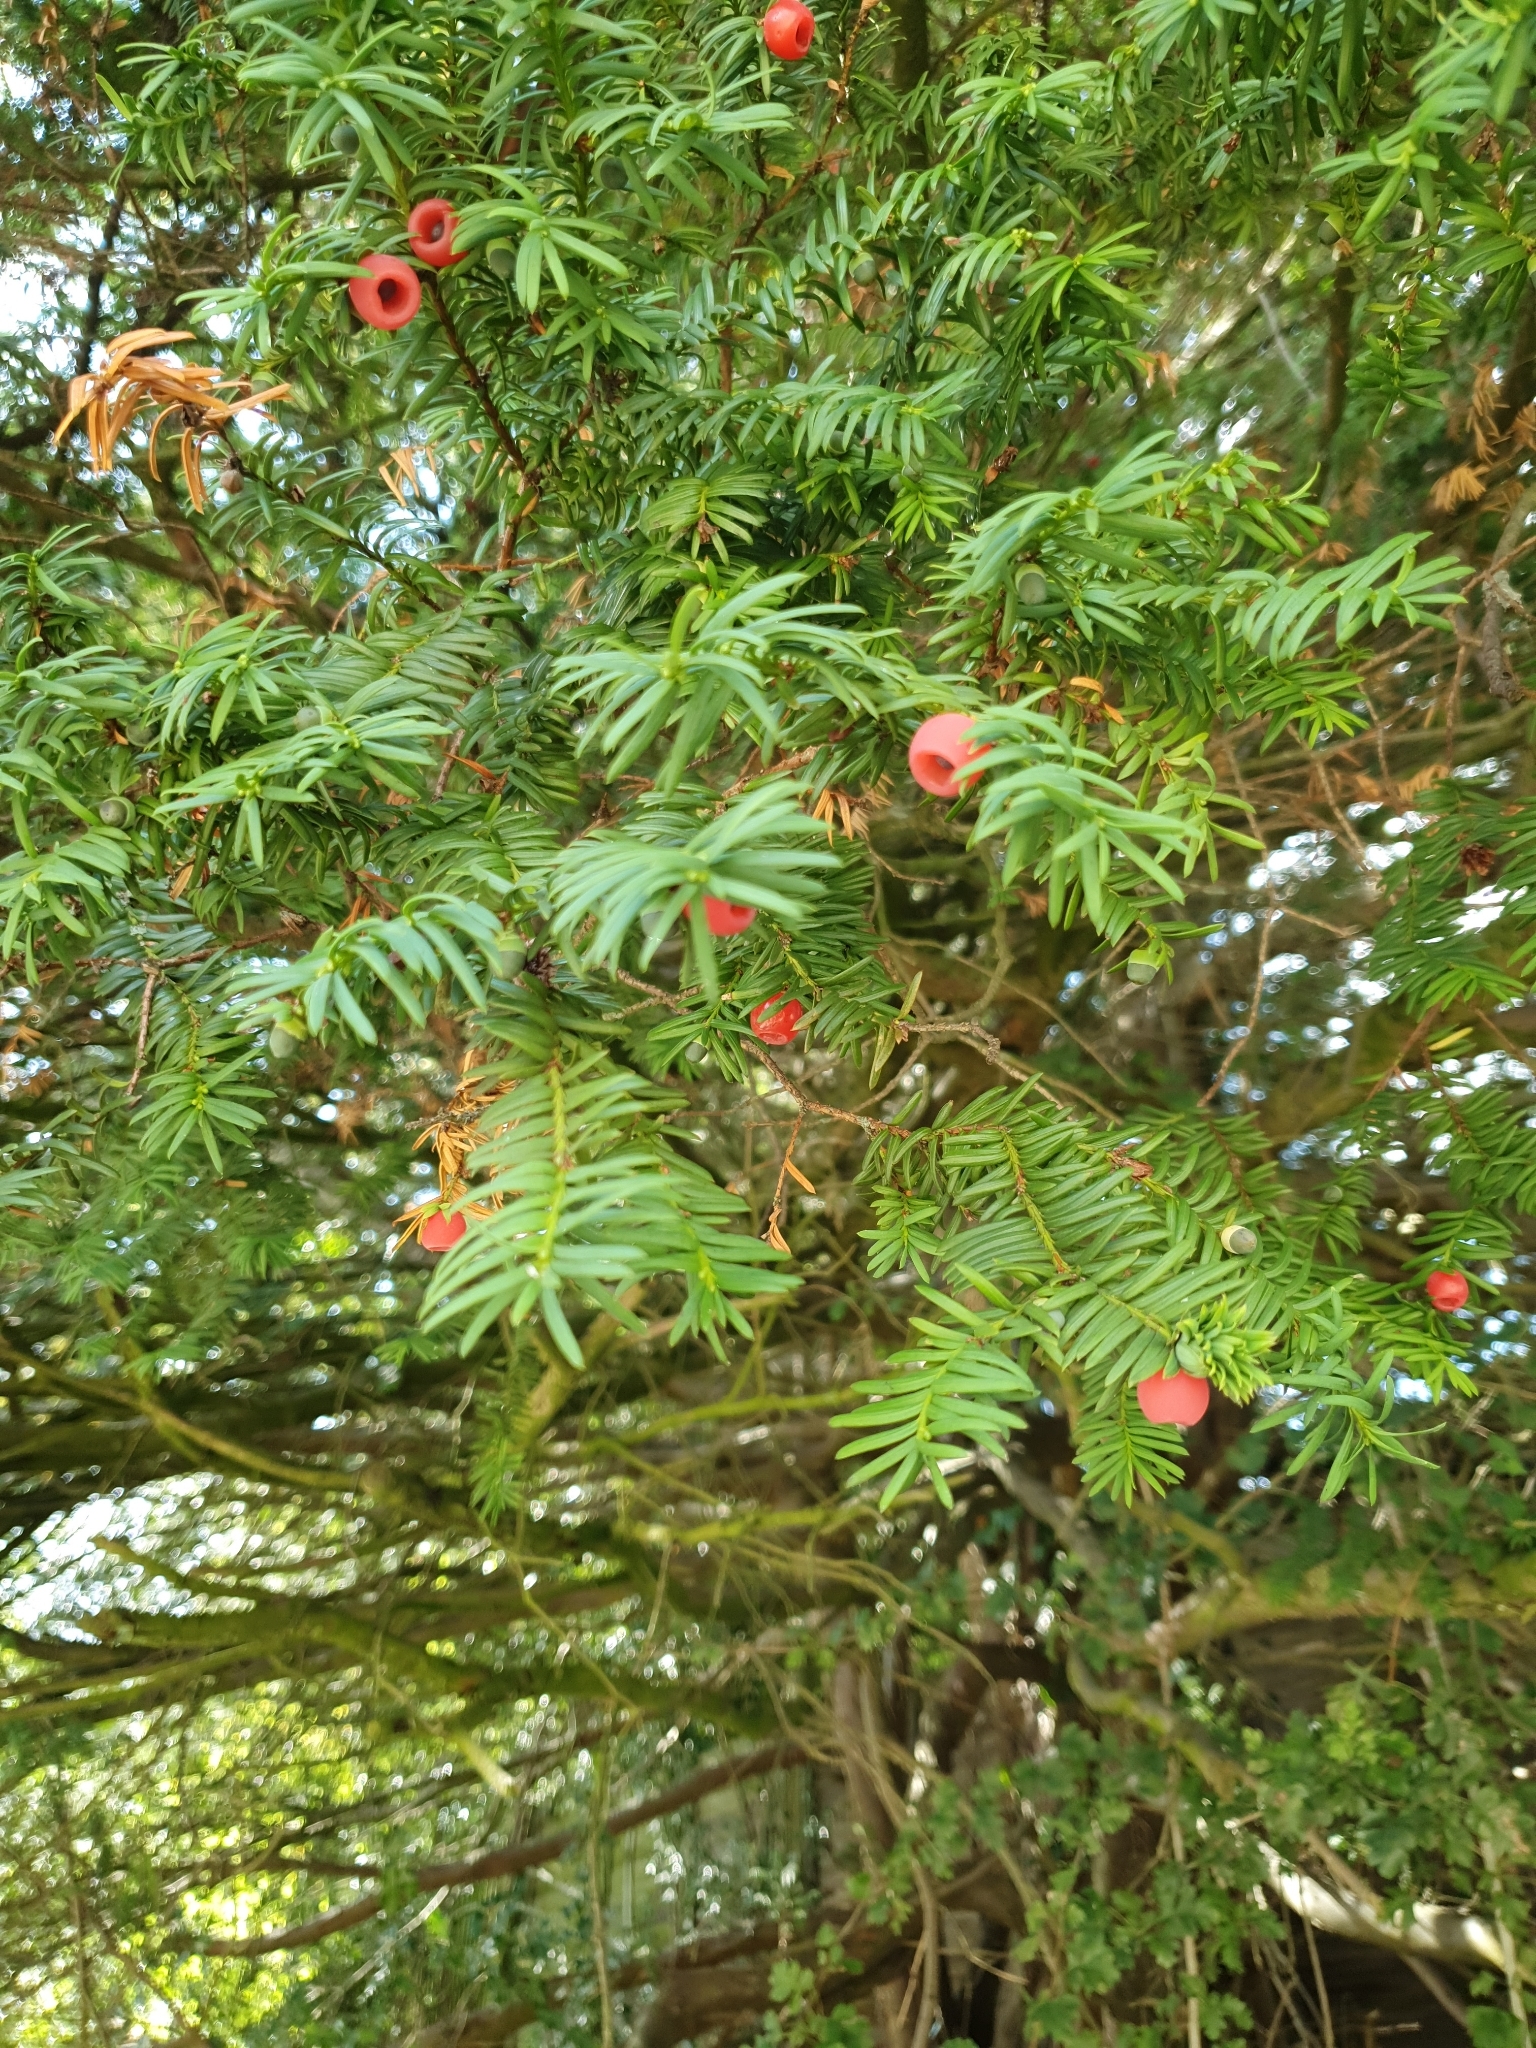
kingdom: Plantae
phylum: Tracheophyta
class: Pinopsida
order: Pinales
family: Taxaceae
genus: Taxus
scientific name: Taxus baccata
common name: Yew
